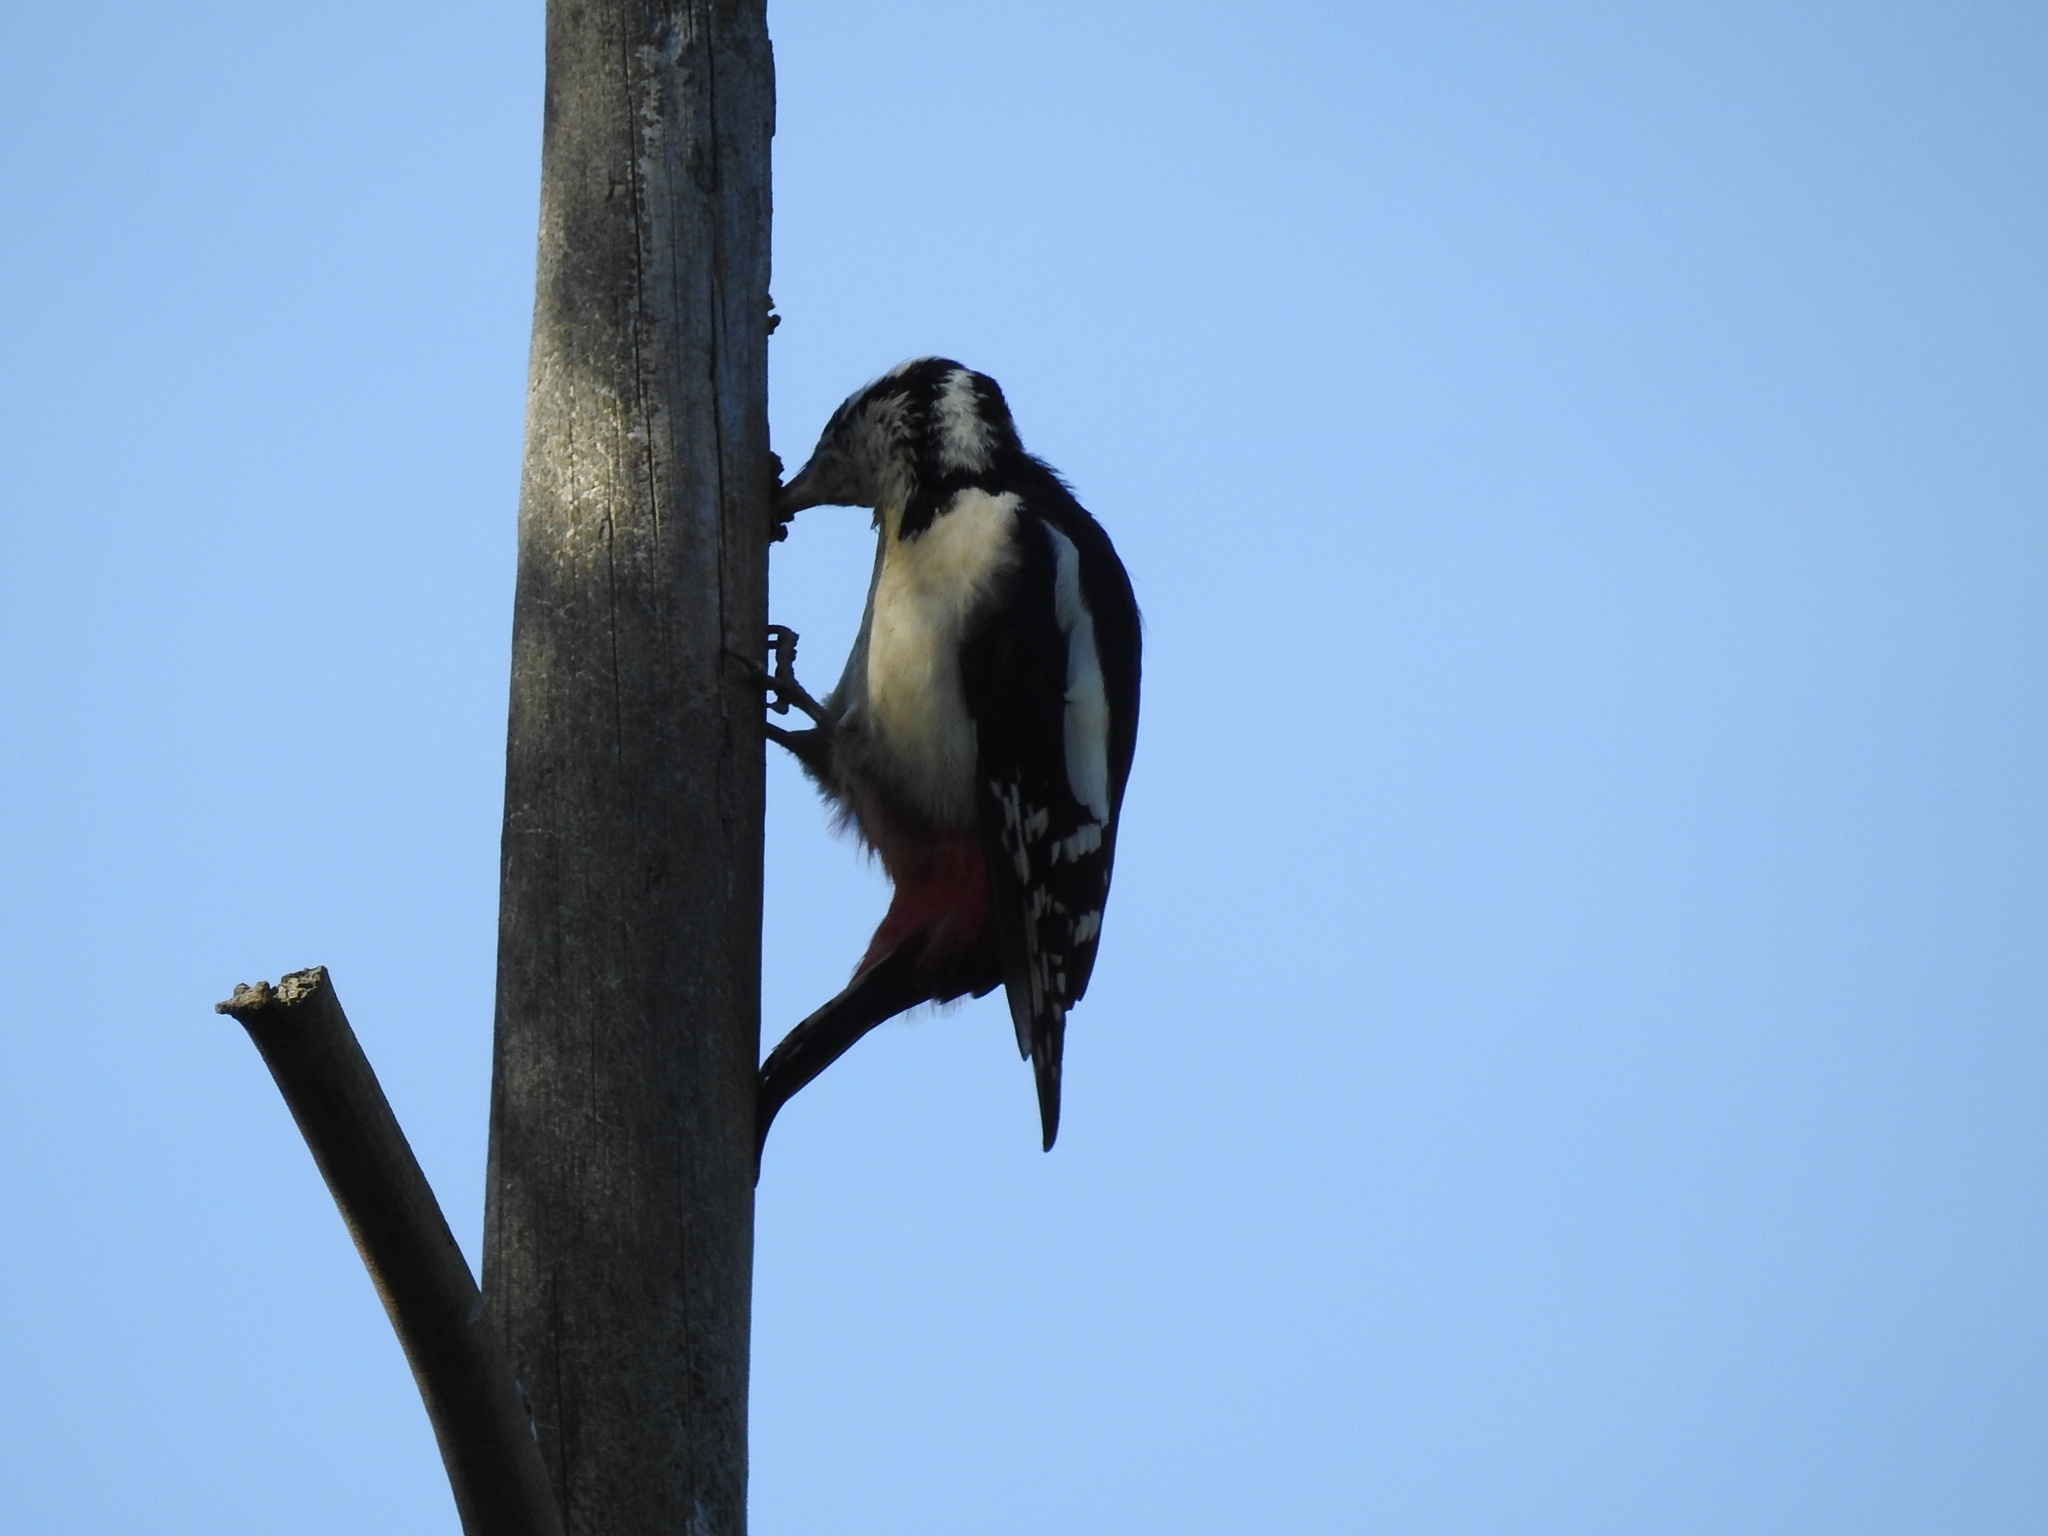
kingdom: Animalia
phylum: Chordata
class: Aves
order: Piciformes
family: Picidae
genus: Dendrocopos
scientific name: Dendrocopos major
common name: Great spotted woodpecker
